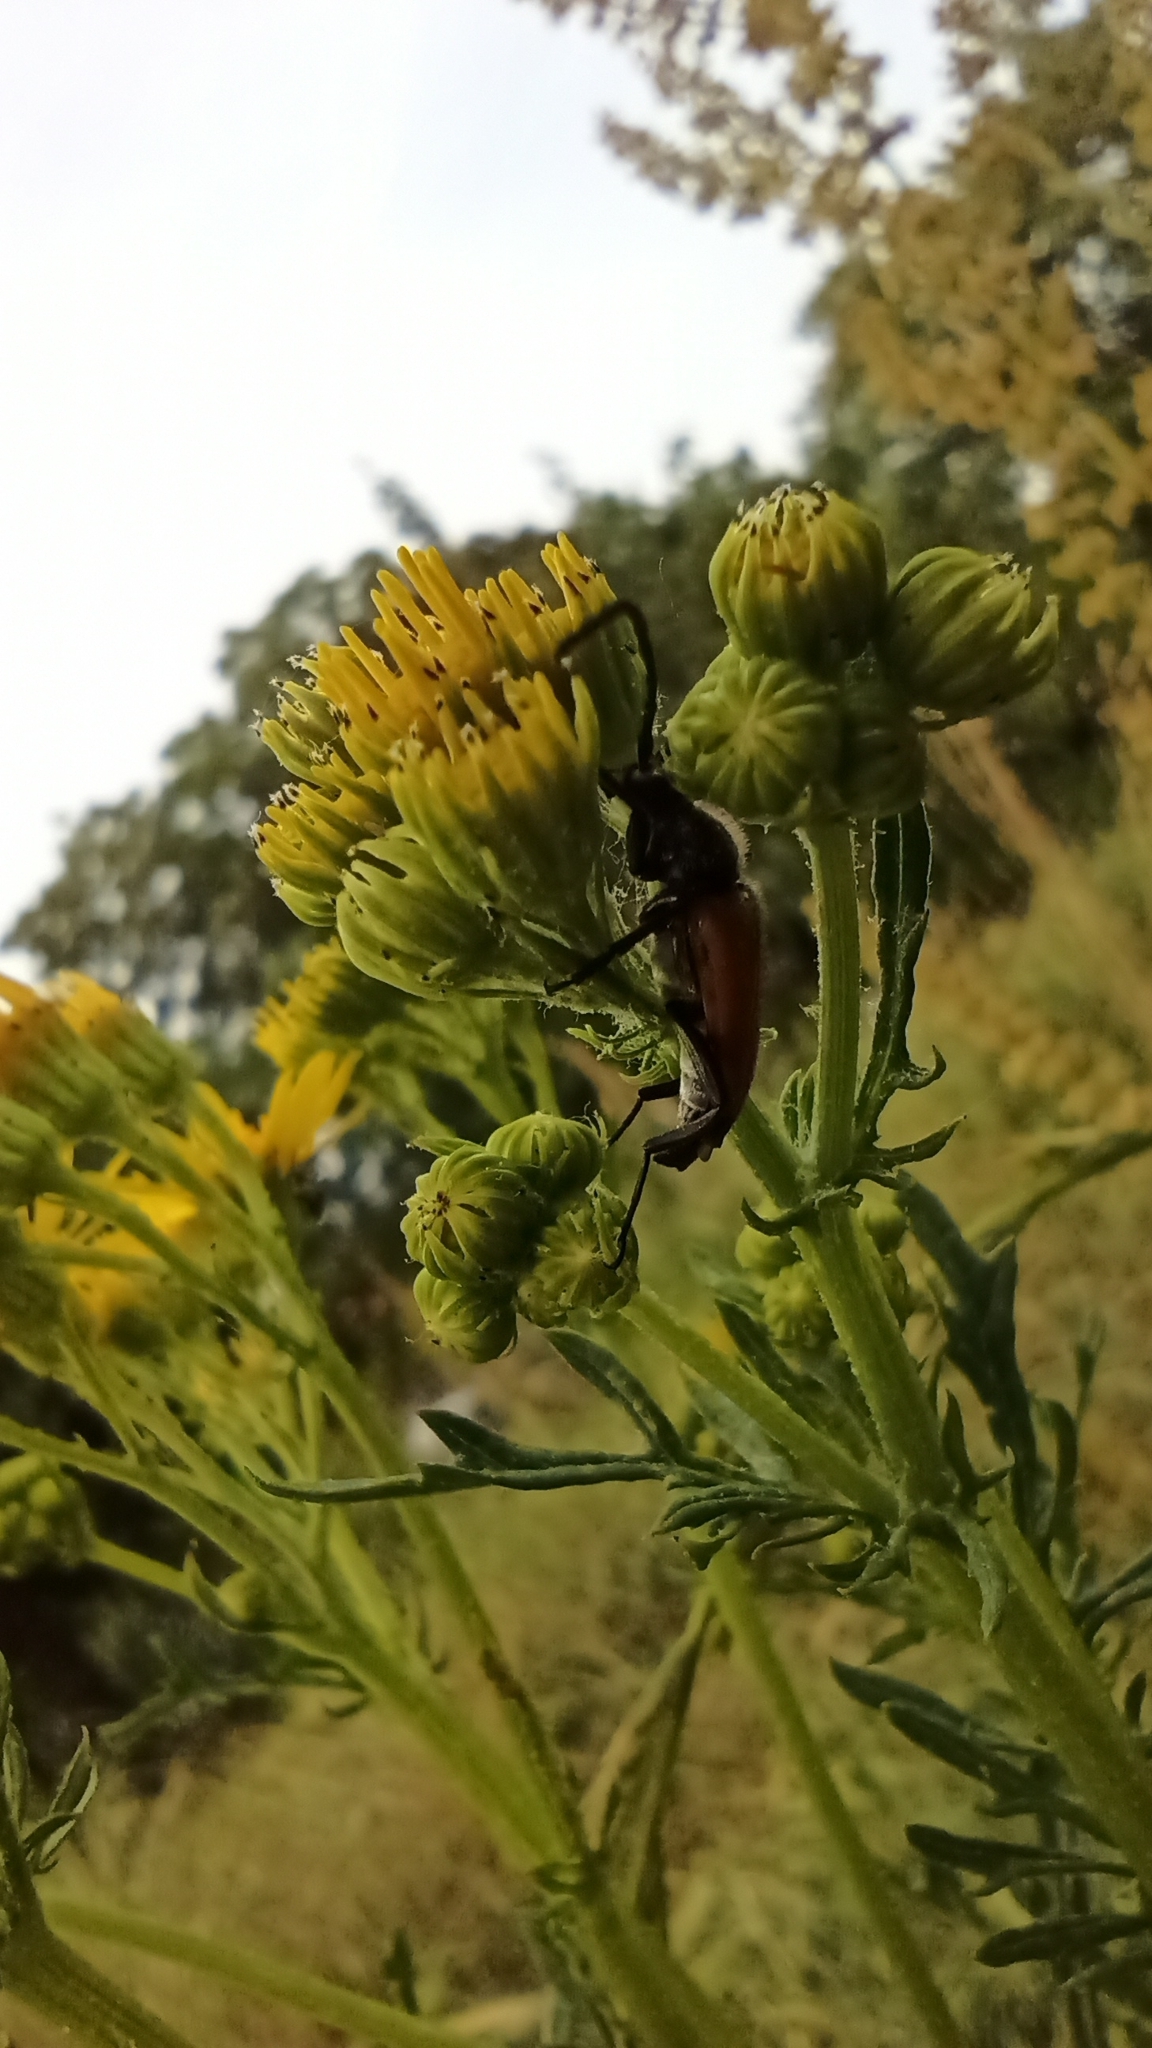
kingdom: Animalia
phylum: Arthropoda
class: Insecta
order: Coleoptera
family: Cerambycidae
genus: Paracorymbia
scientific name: Paracorymbia fulva
